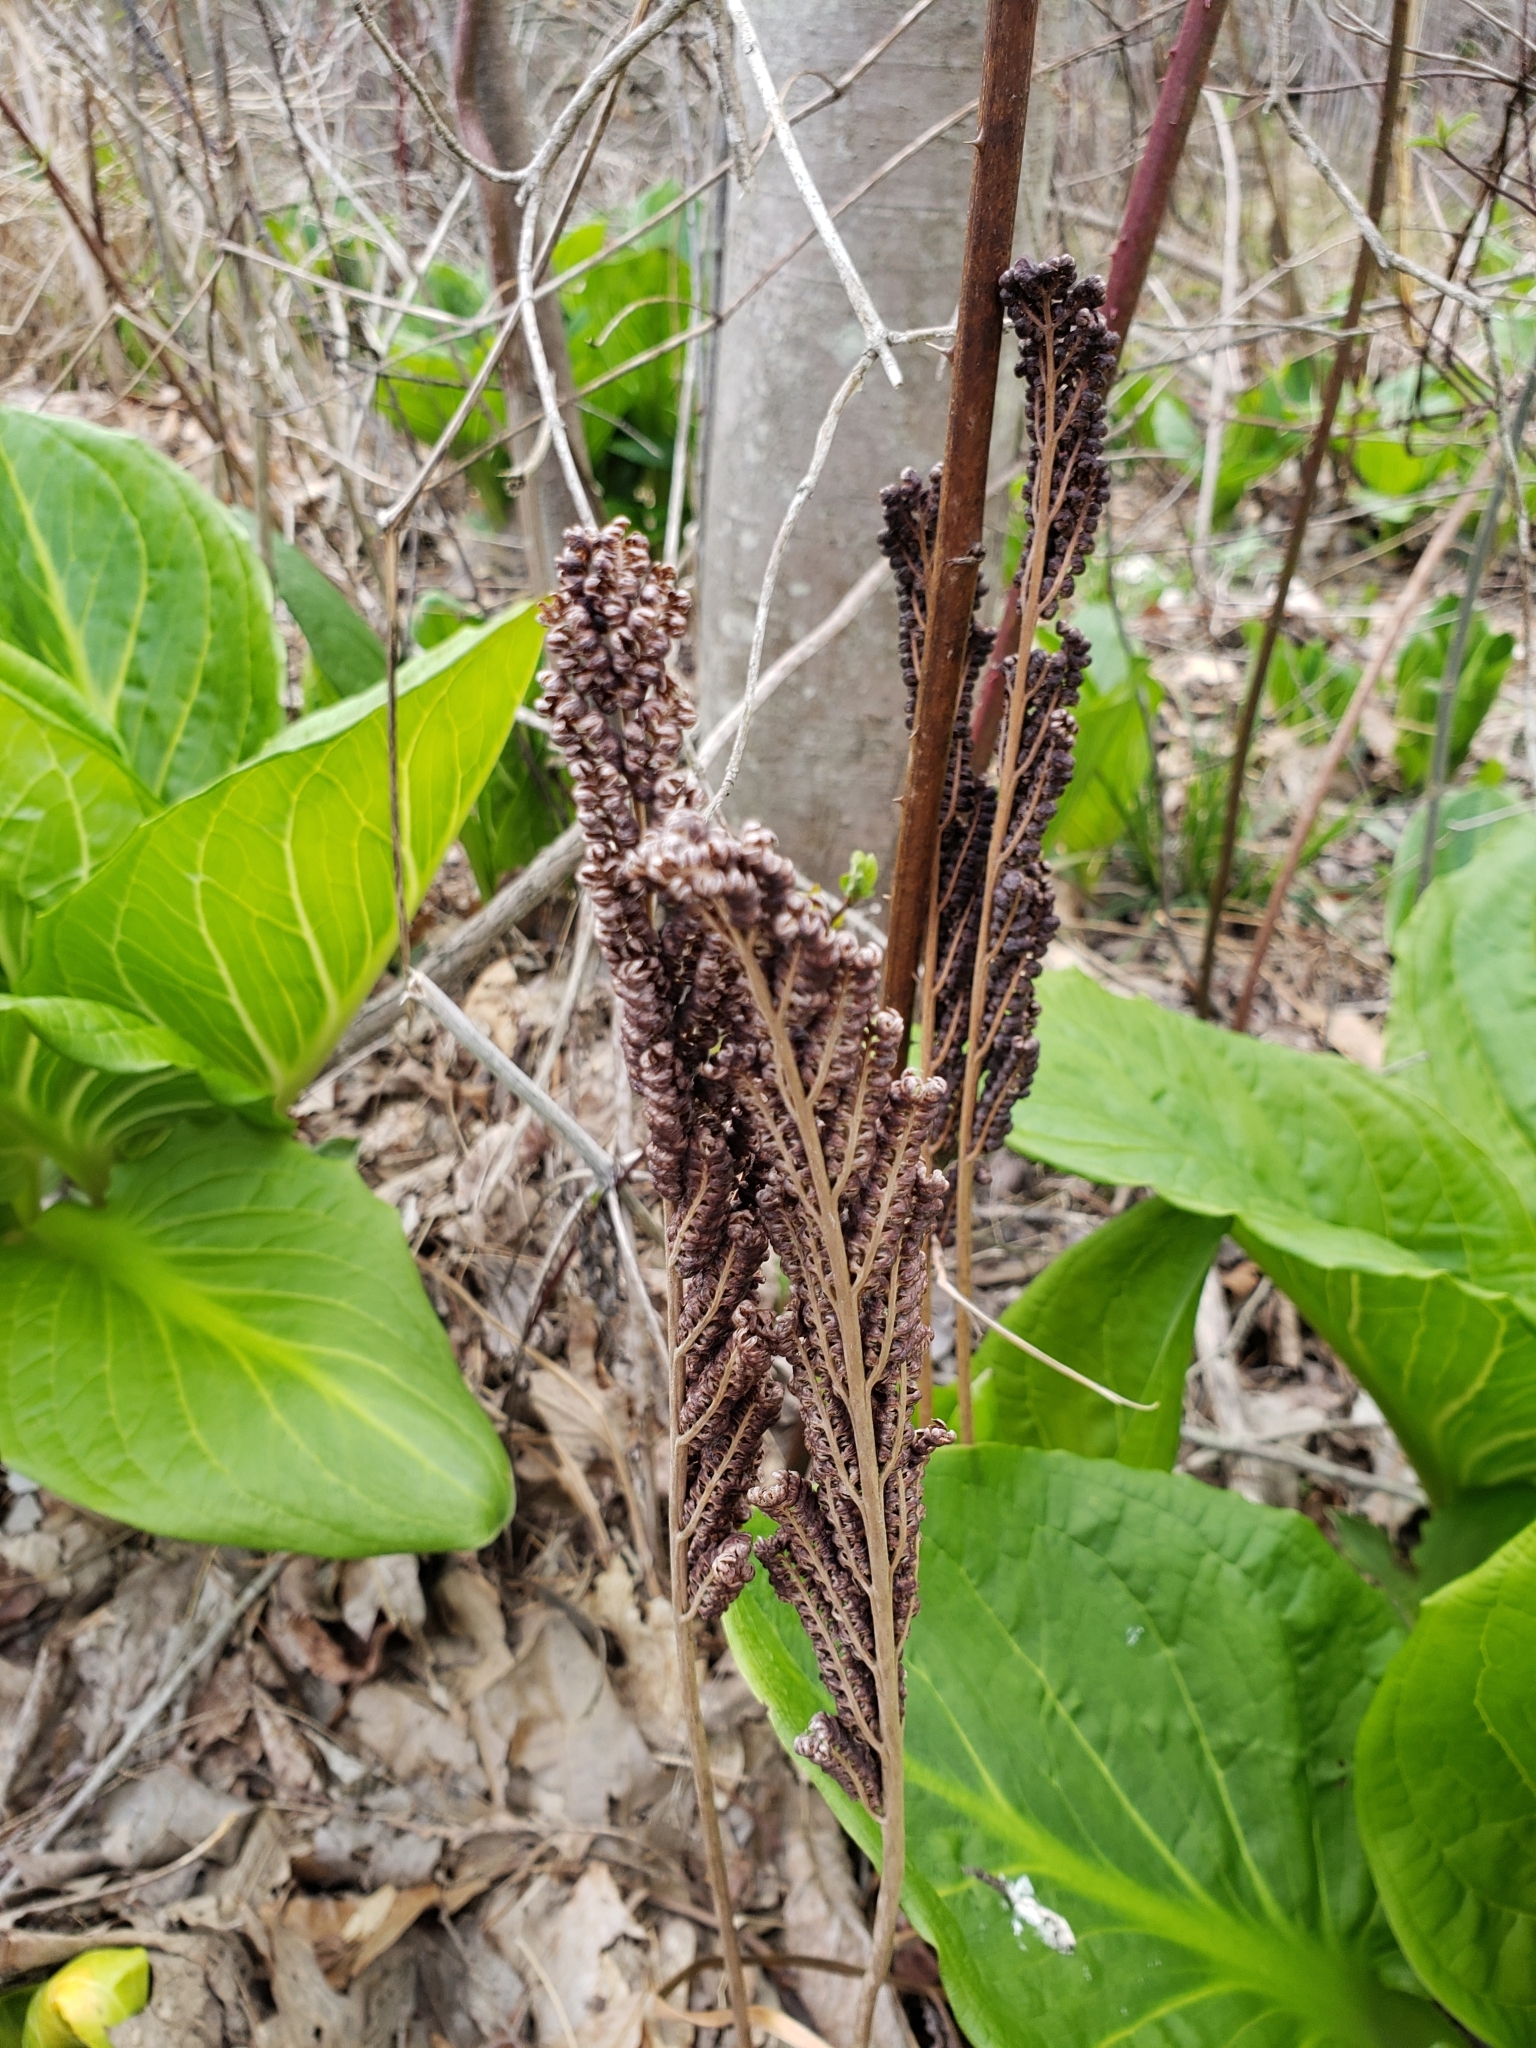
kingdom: Plantae
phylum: Tracheophyta
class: Polypodiopsida
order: Polypodiales
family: Onocleaceae
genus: Onoclea
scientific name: Onoclea sensibilis
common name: Sensitive fern
